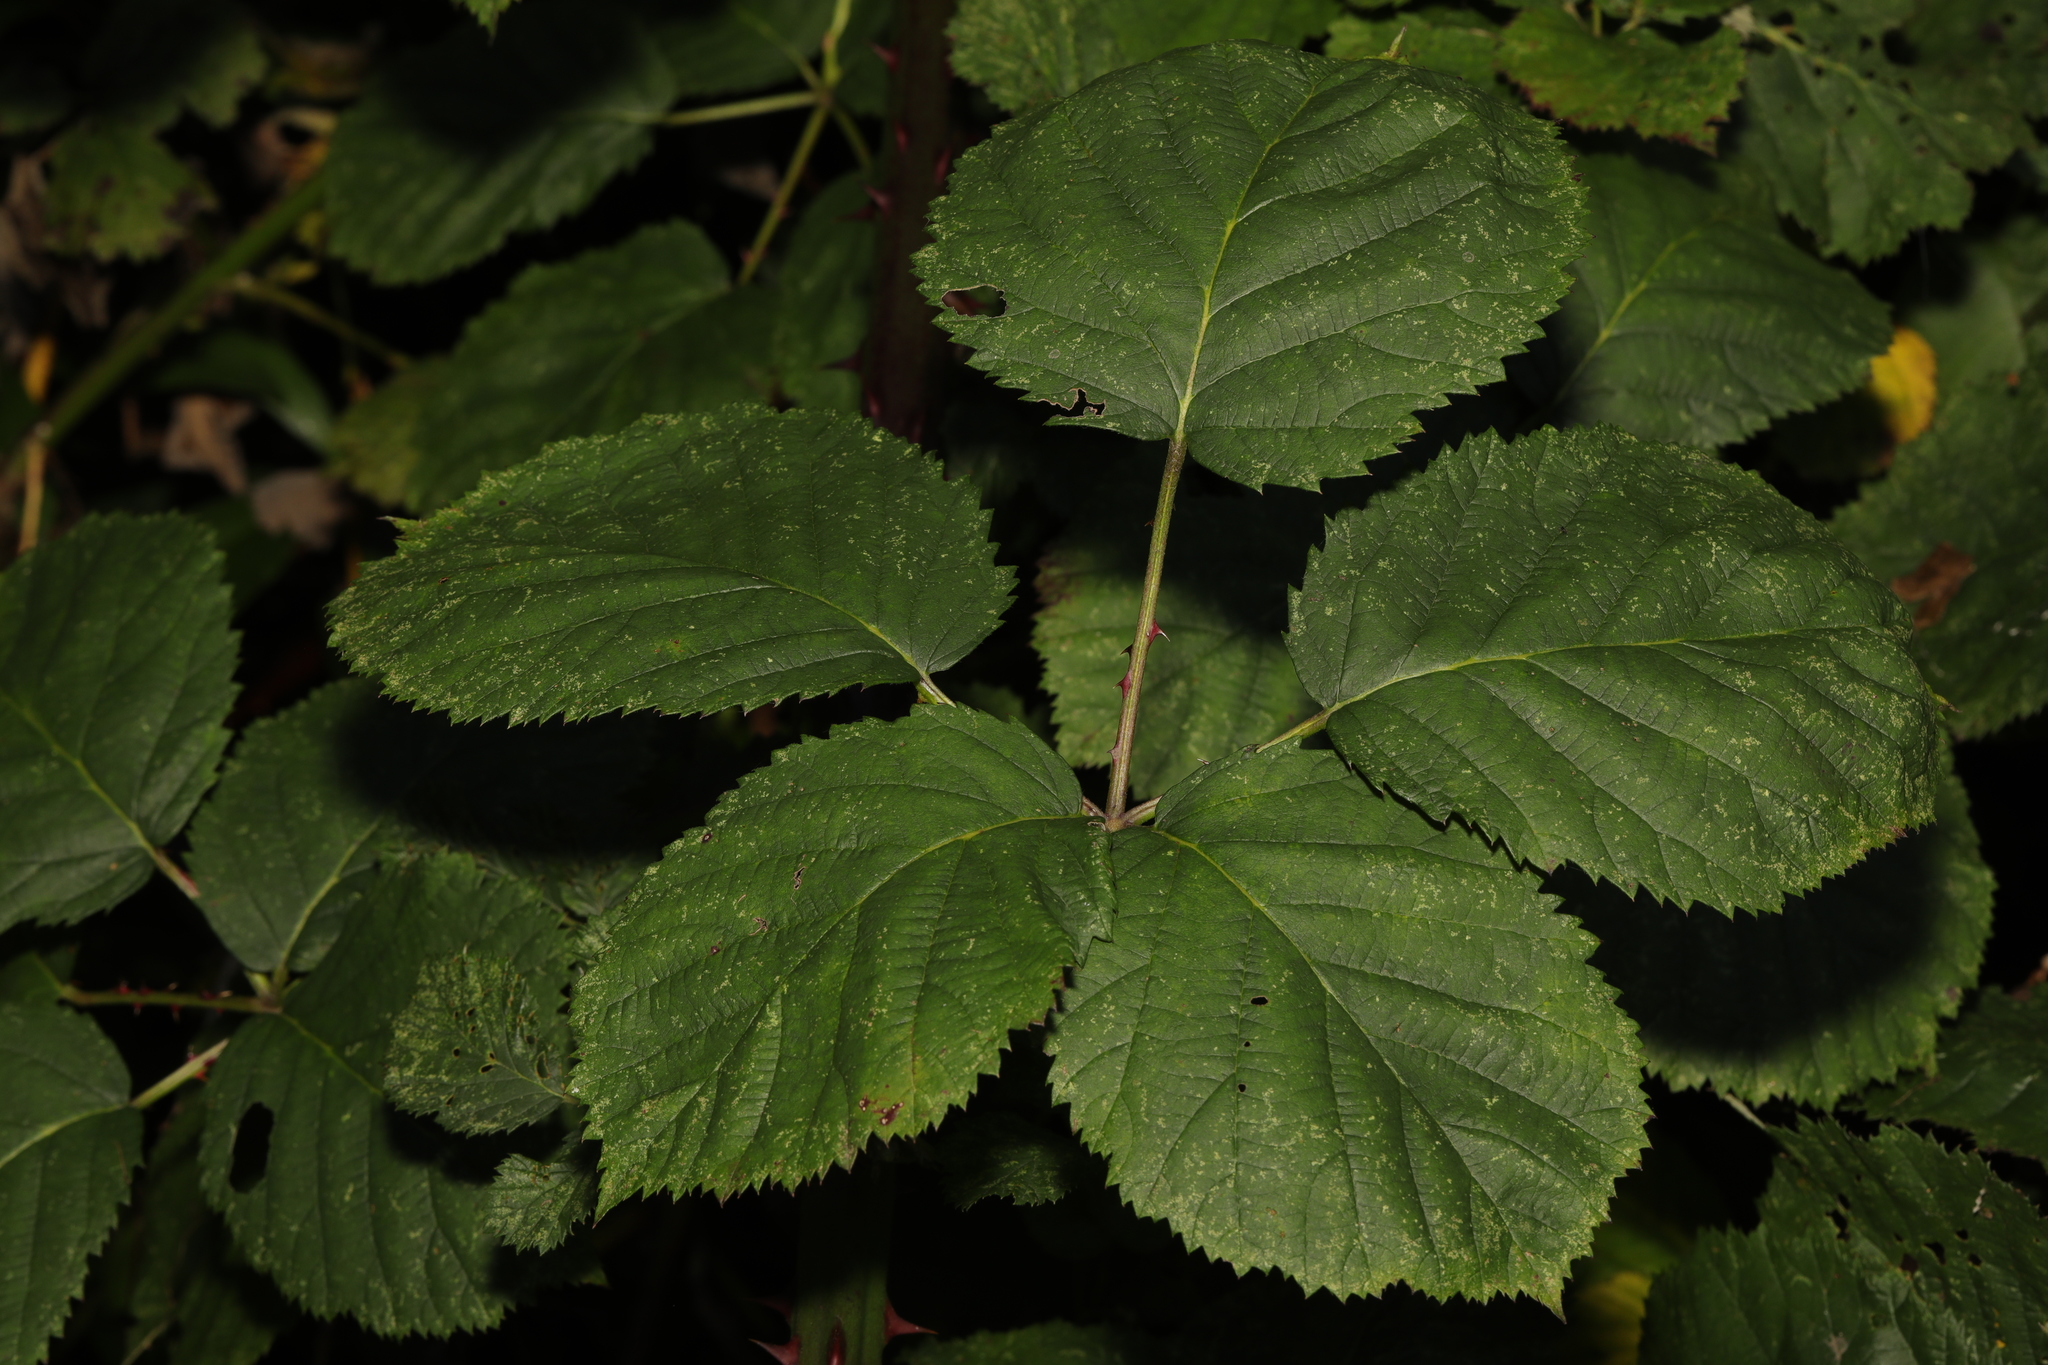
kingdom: Plantae
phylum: Tracheophyta
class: Magnoliopsida
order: Rosales
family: Rosaceae
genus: Rubus
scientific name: Rubus armeniacus
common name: Himalayan blackberry
